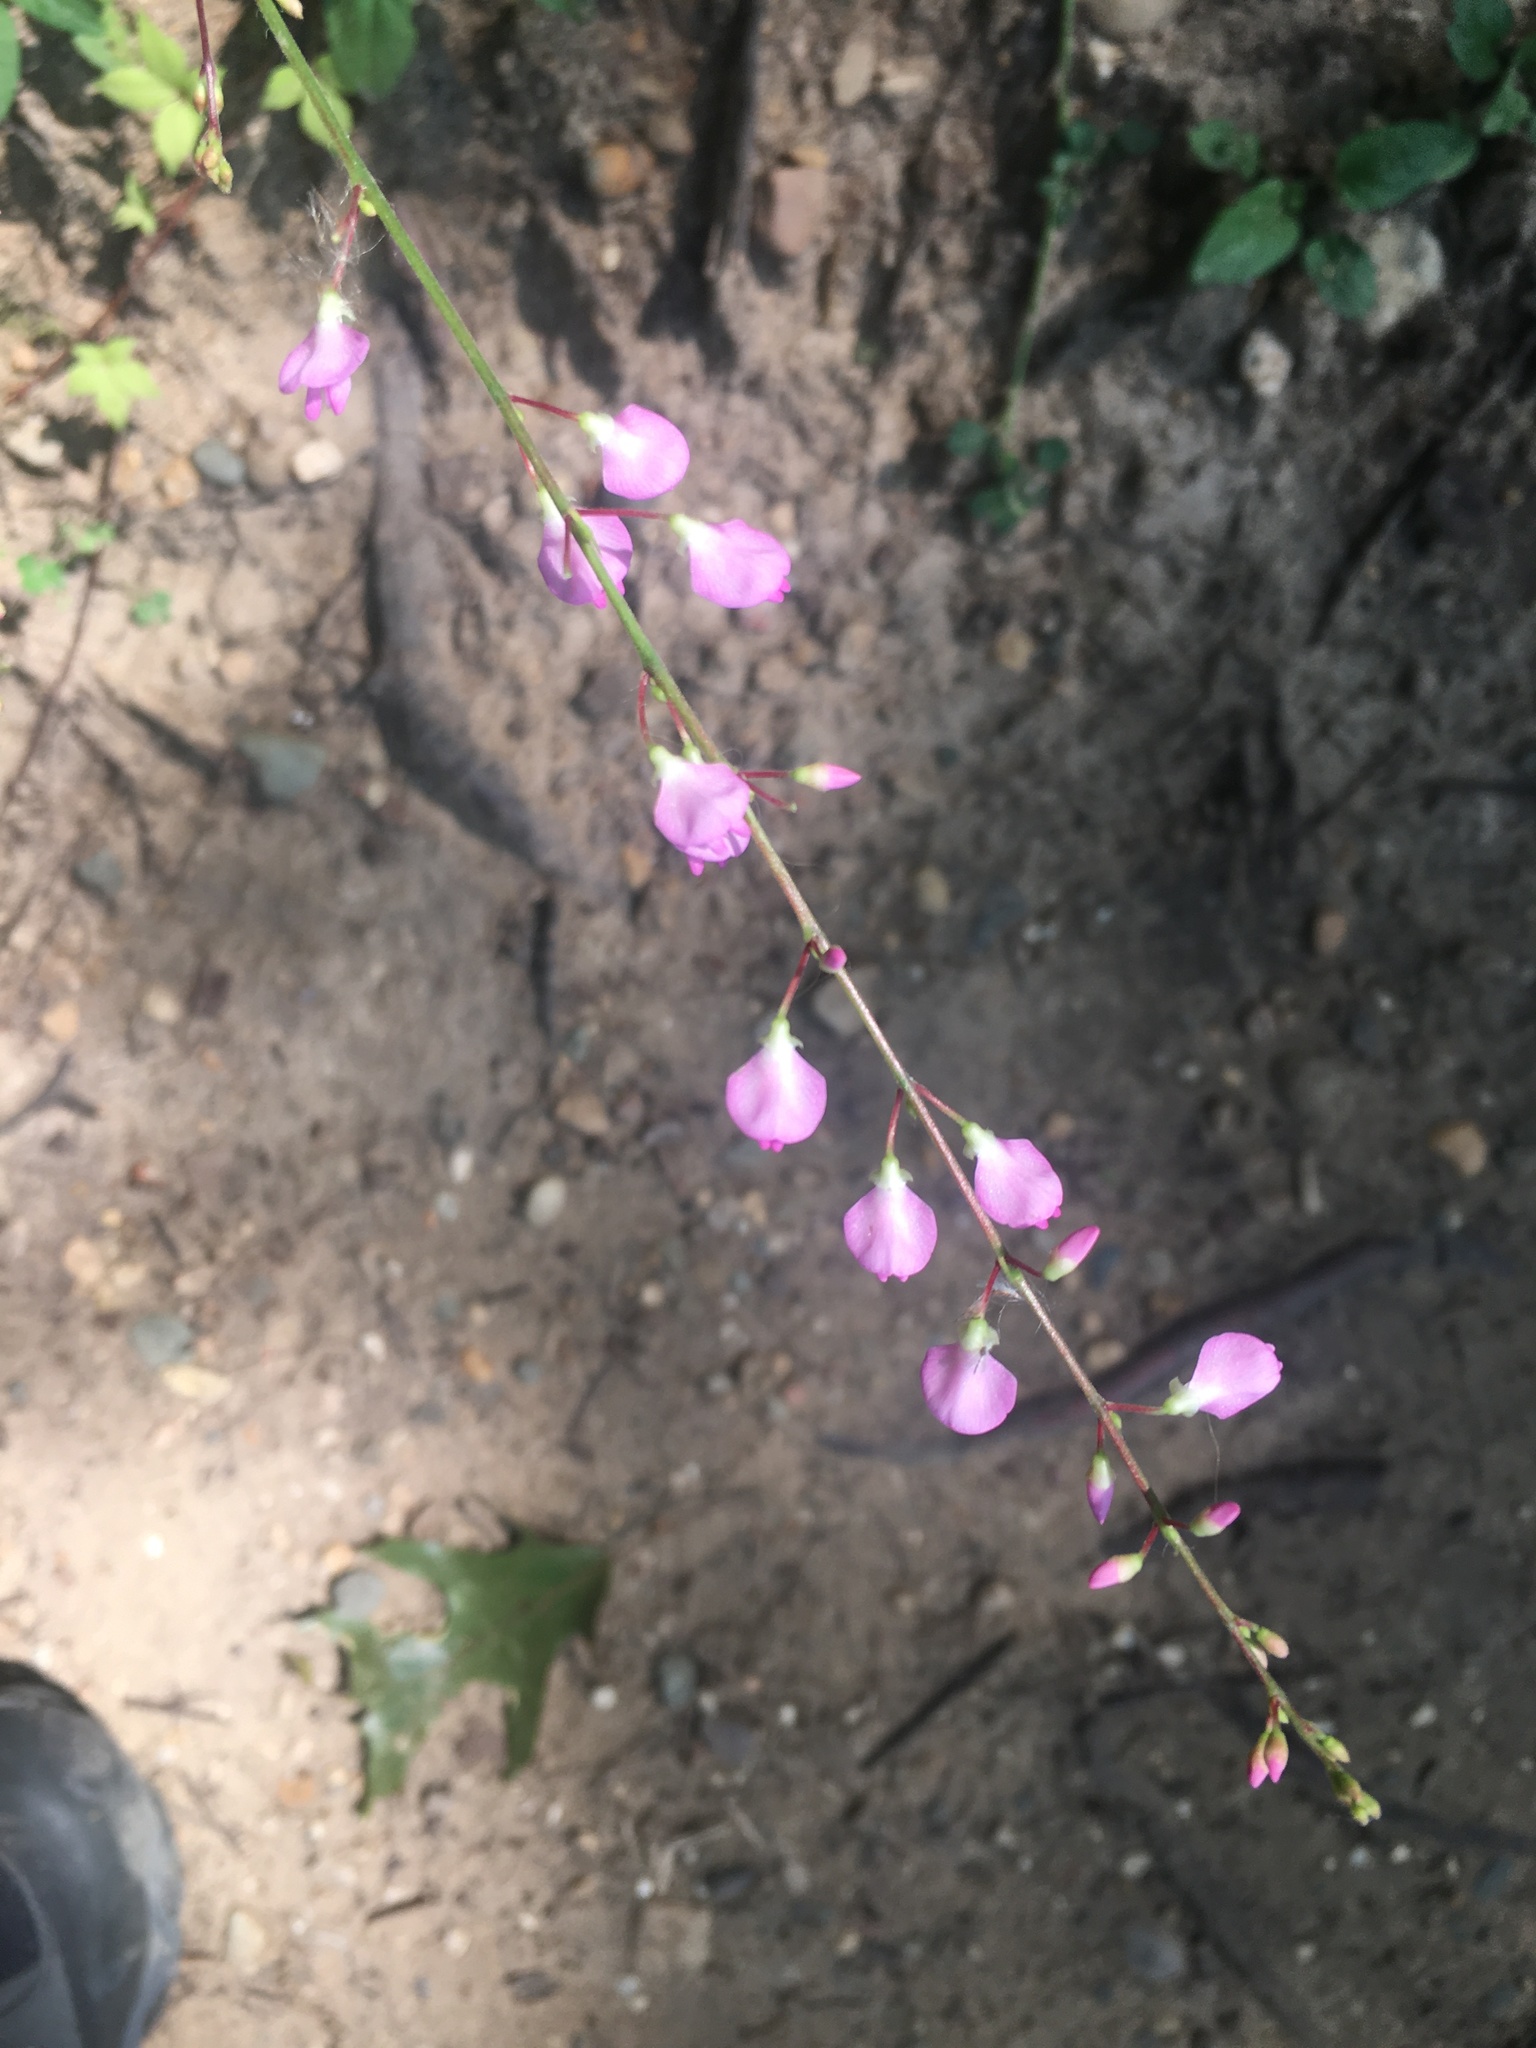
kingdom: Plantae
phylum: Tracheophyta
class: Magnoliopsida
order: Fabales
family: Fabaceae
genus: Hylodesmum
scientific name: Hylodesmum glutinosum
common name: Clustered-leaved tick-trefoil
